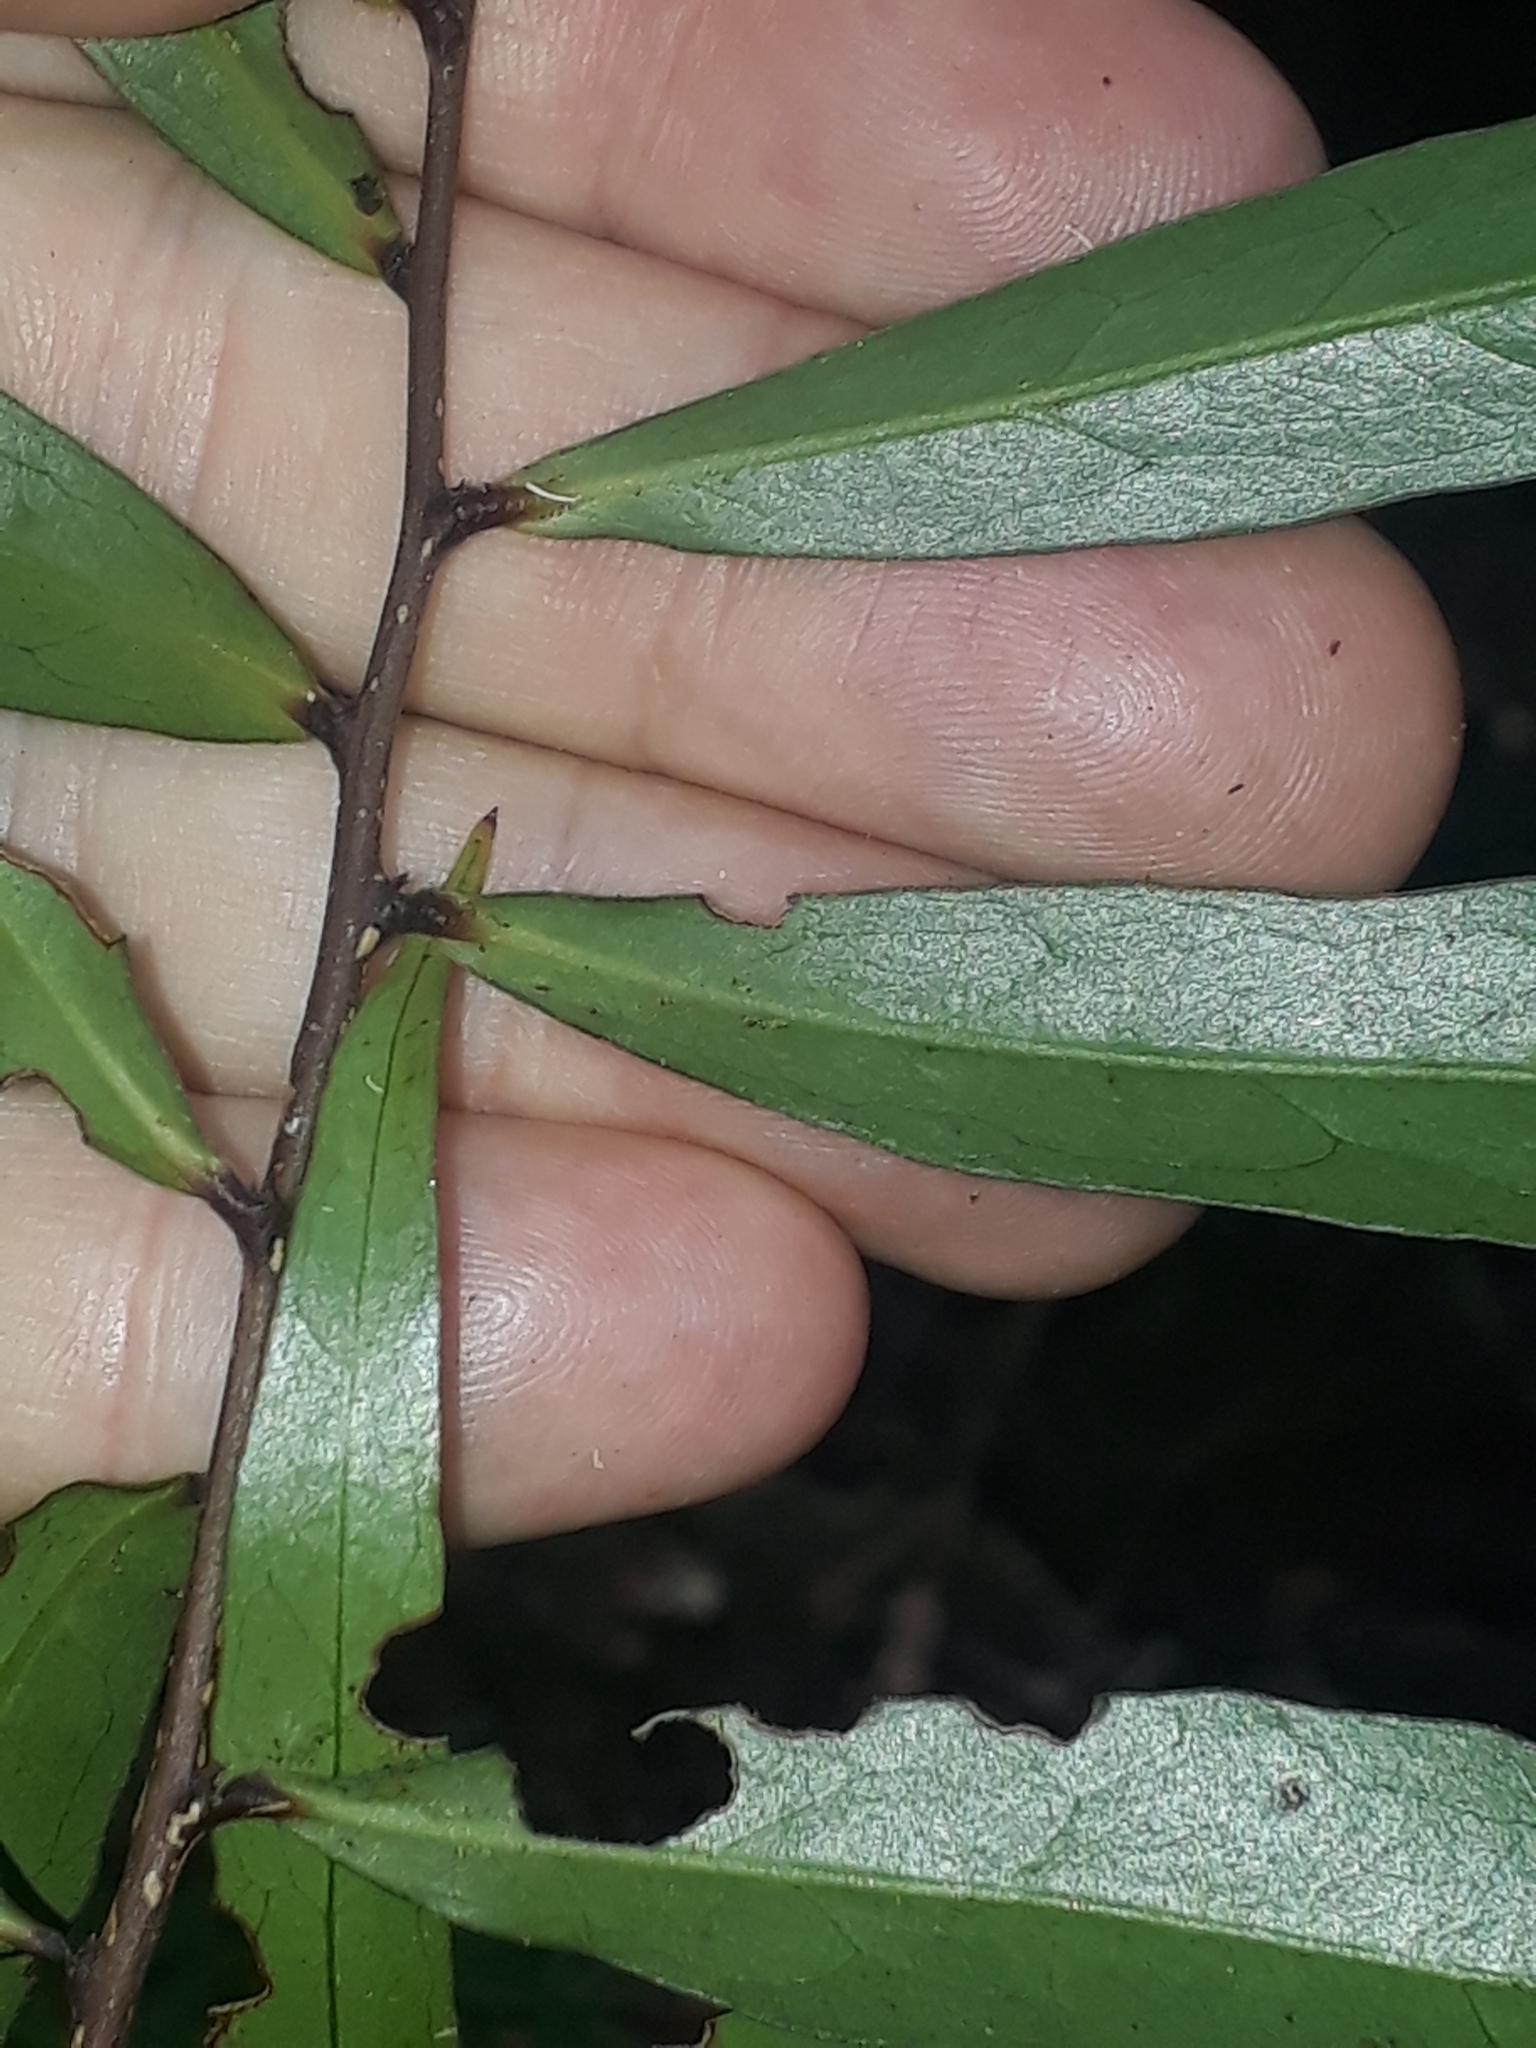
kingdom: Plantae
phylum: Tracheophyta
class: Magnoliopsida
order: Santalales
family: Nanodeaceae
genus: Mida
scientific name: Mida salicifolia
